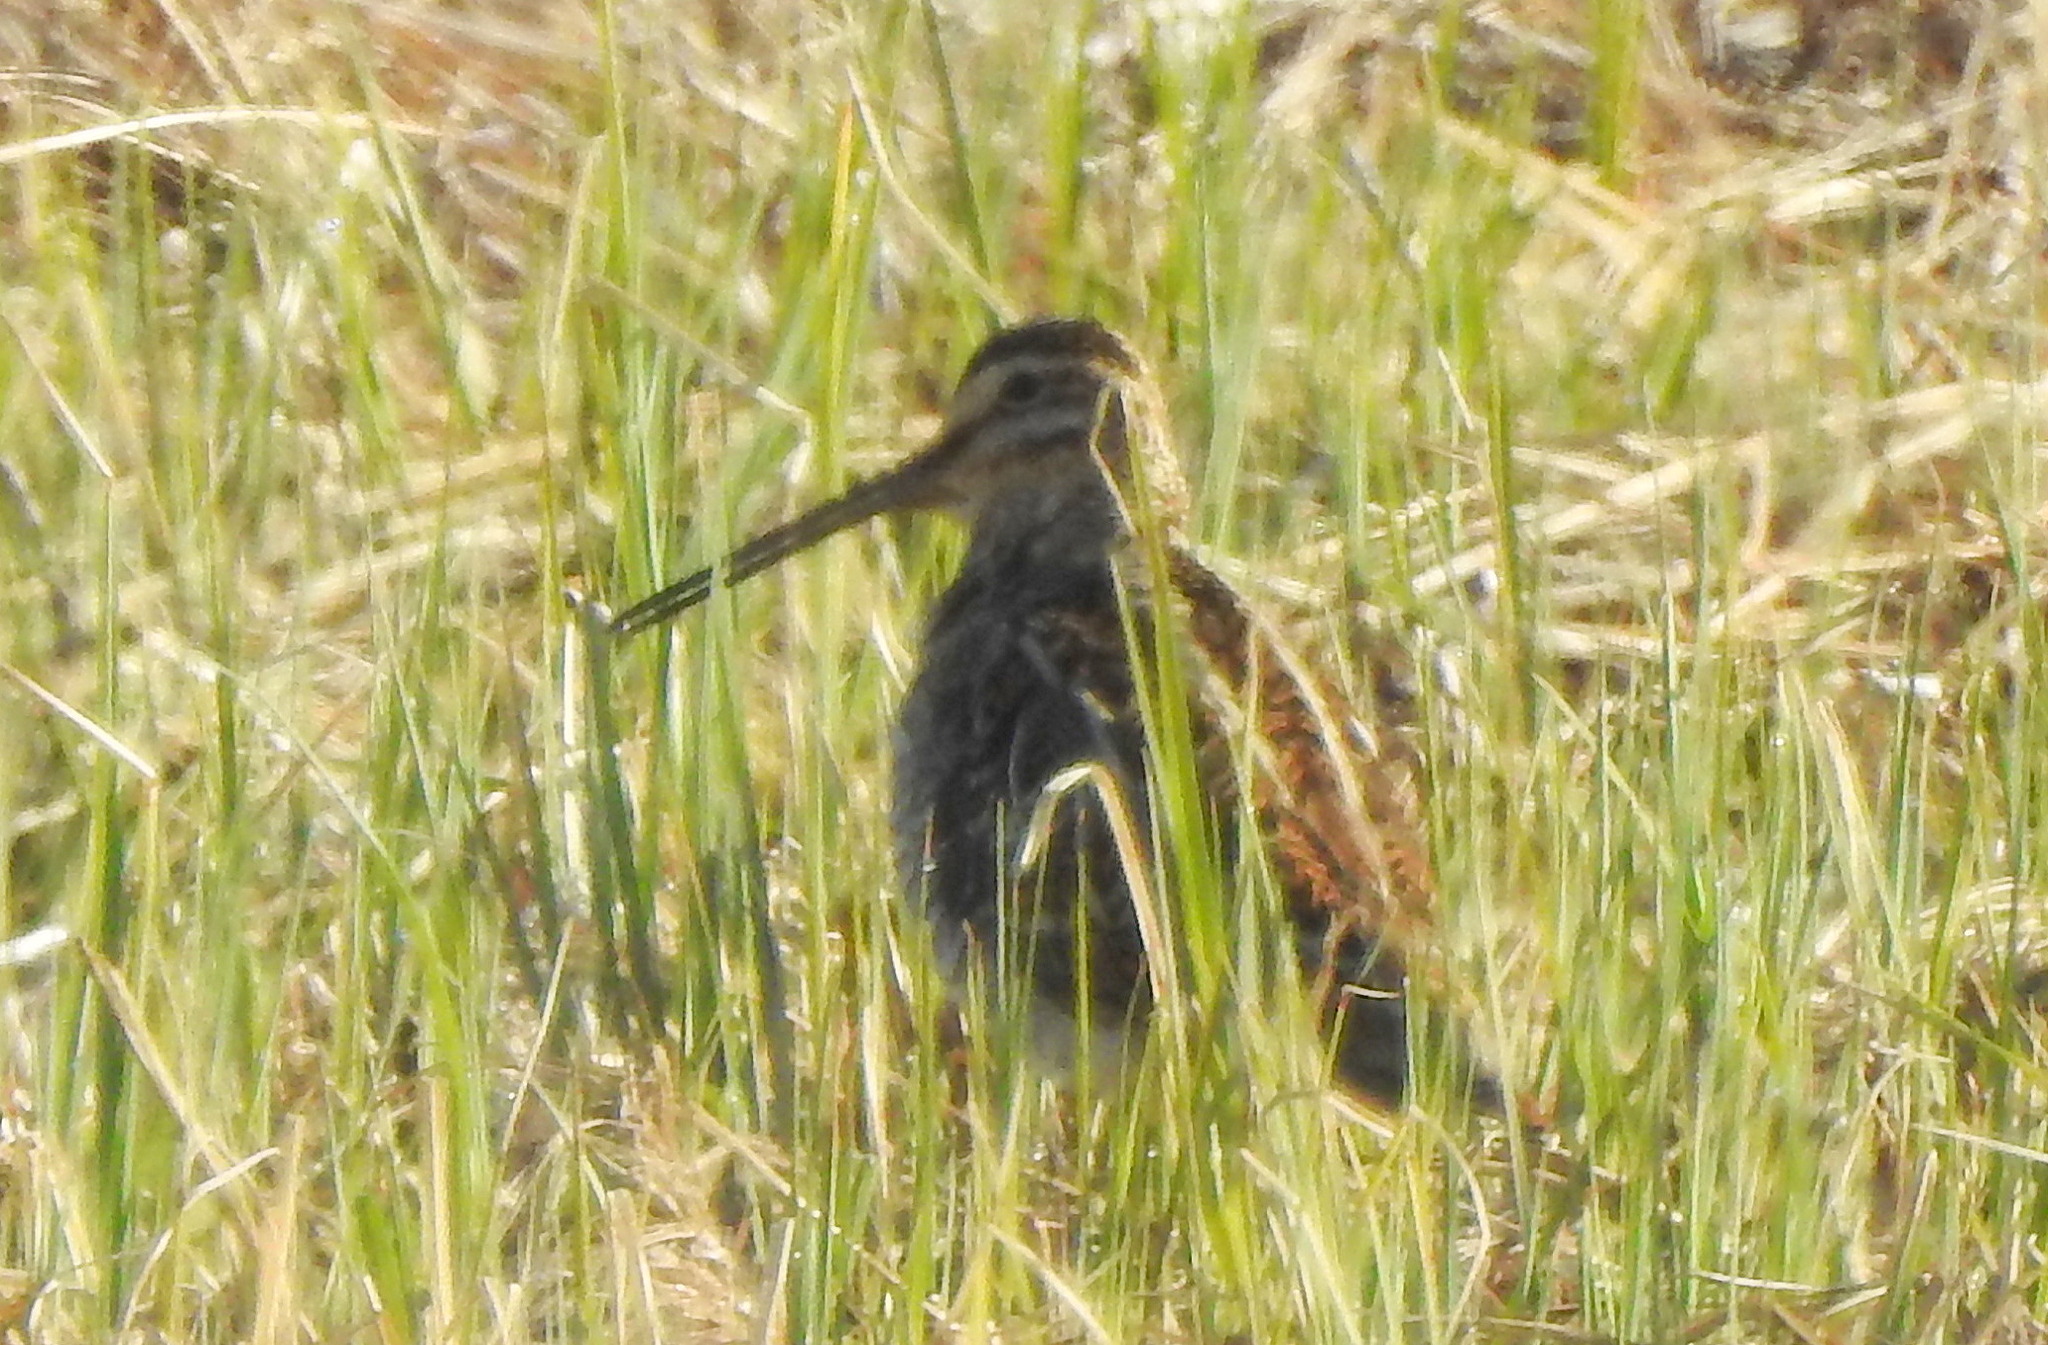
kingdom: Animalia
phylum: Chordata
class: Aves
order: Charadriiformes
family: Scolopacidae
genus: Gallinago
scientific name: Gallinago gallinago
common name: Common snipe
